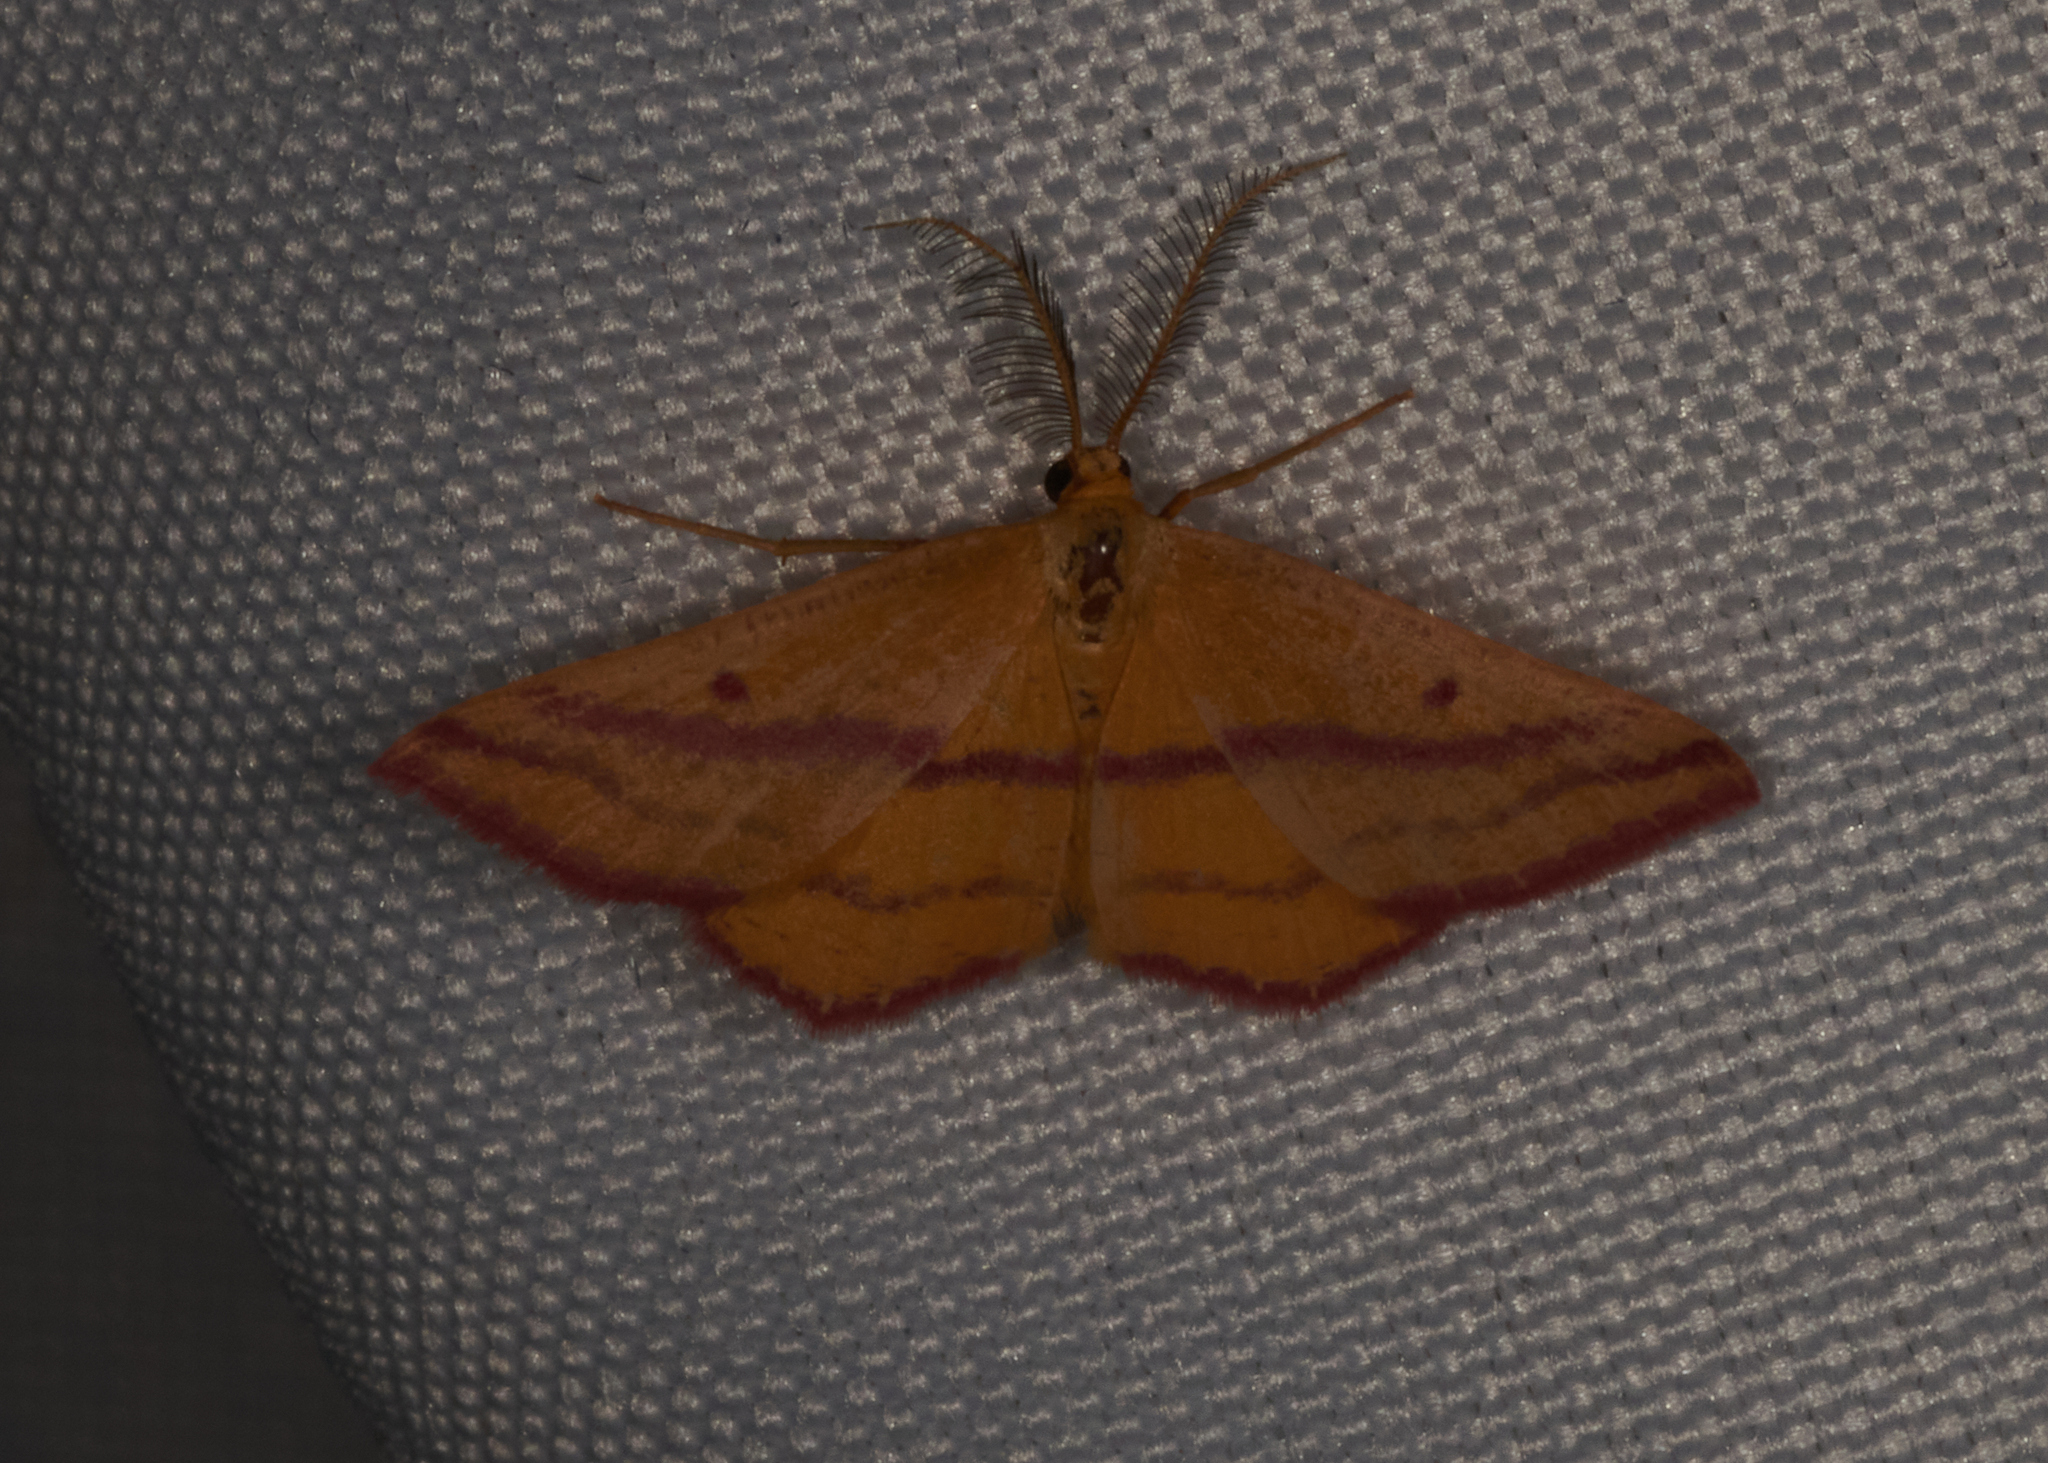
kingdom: Animalia
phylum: Arthropoda
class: Insecta
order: Lepidoptera
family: Geometridae
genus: Haematopis
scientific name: Haematopis grataria
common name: Chickweed geometer
